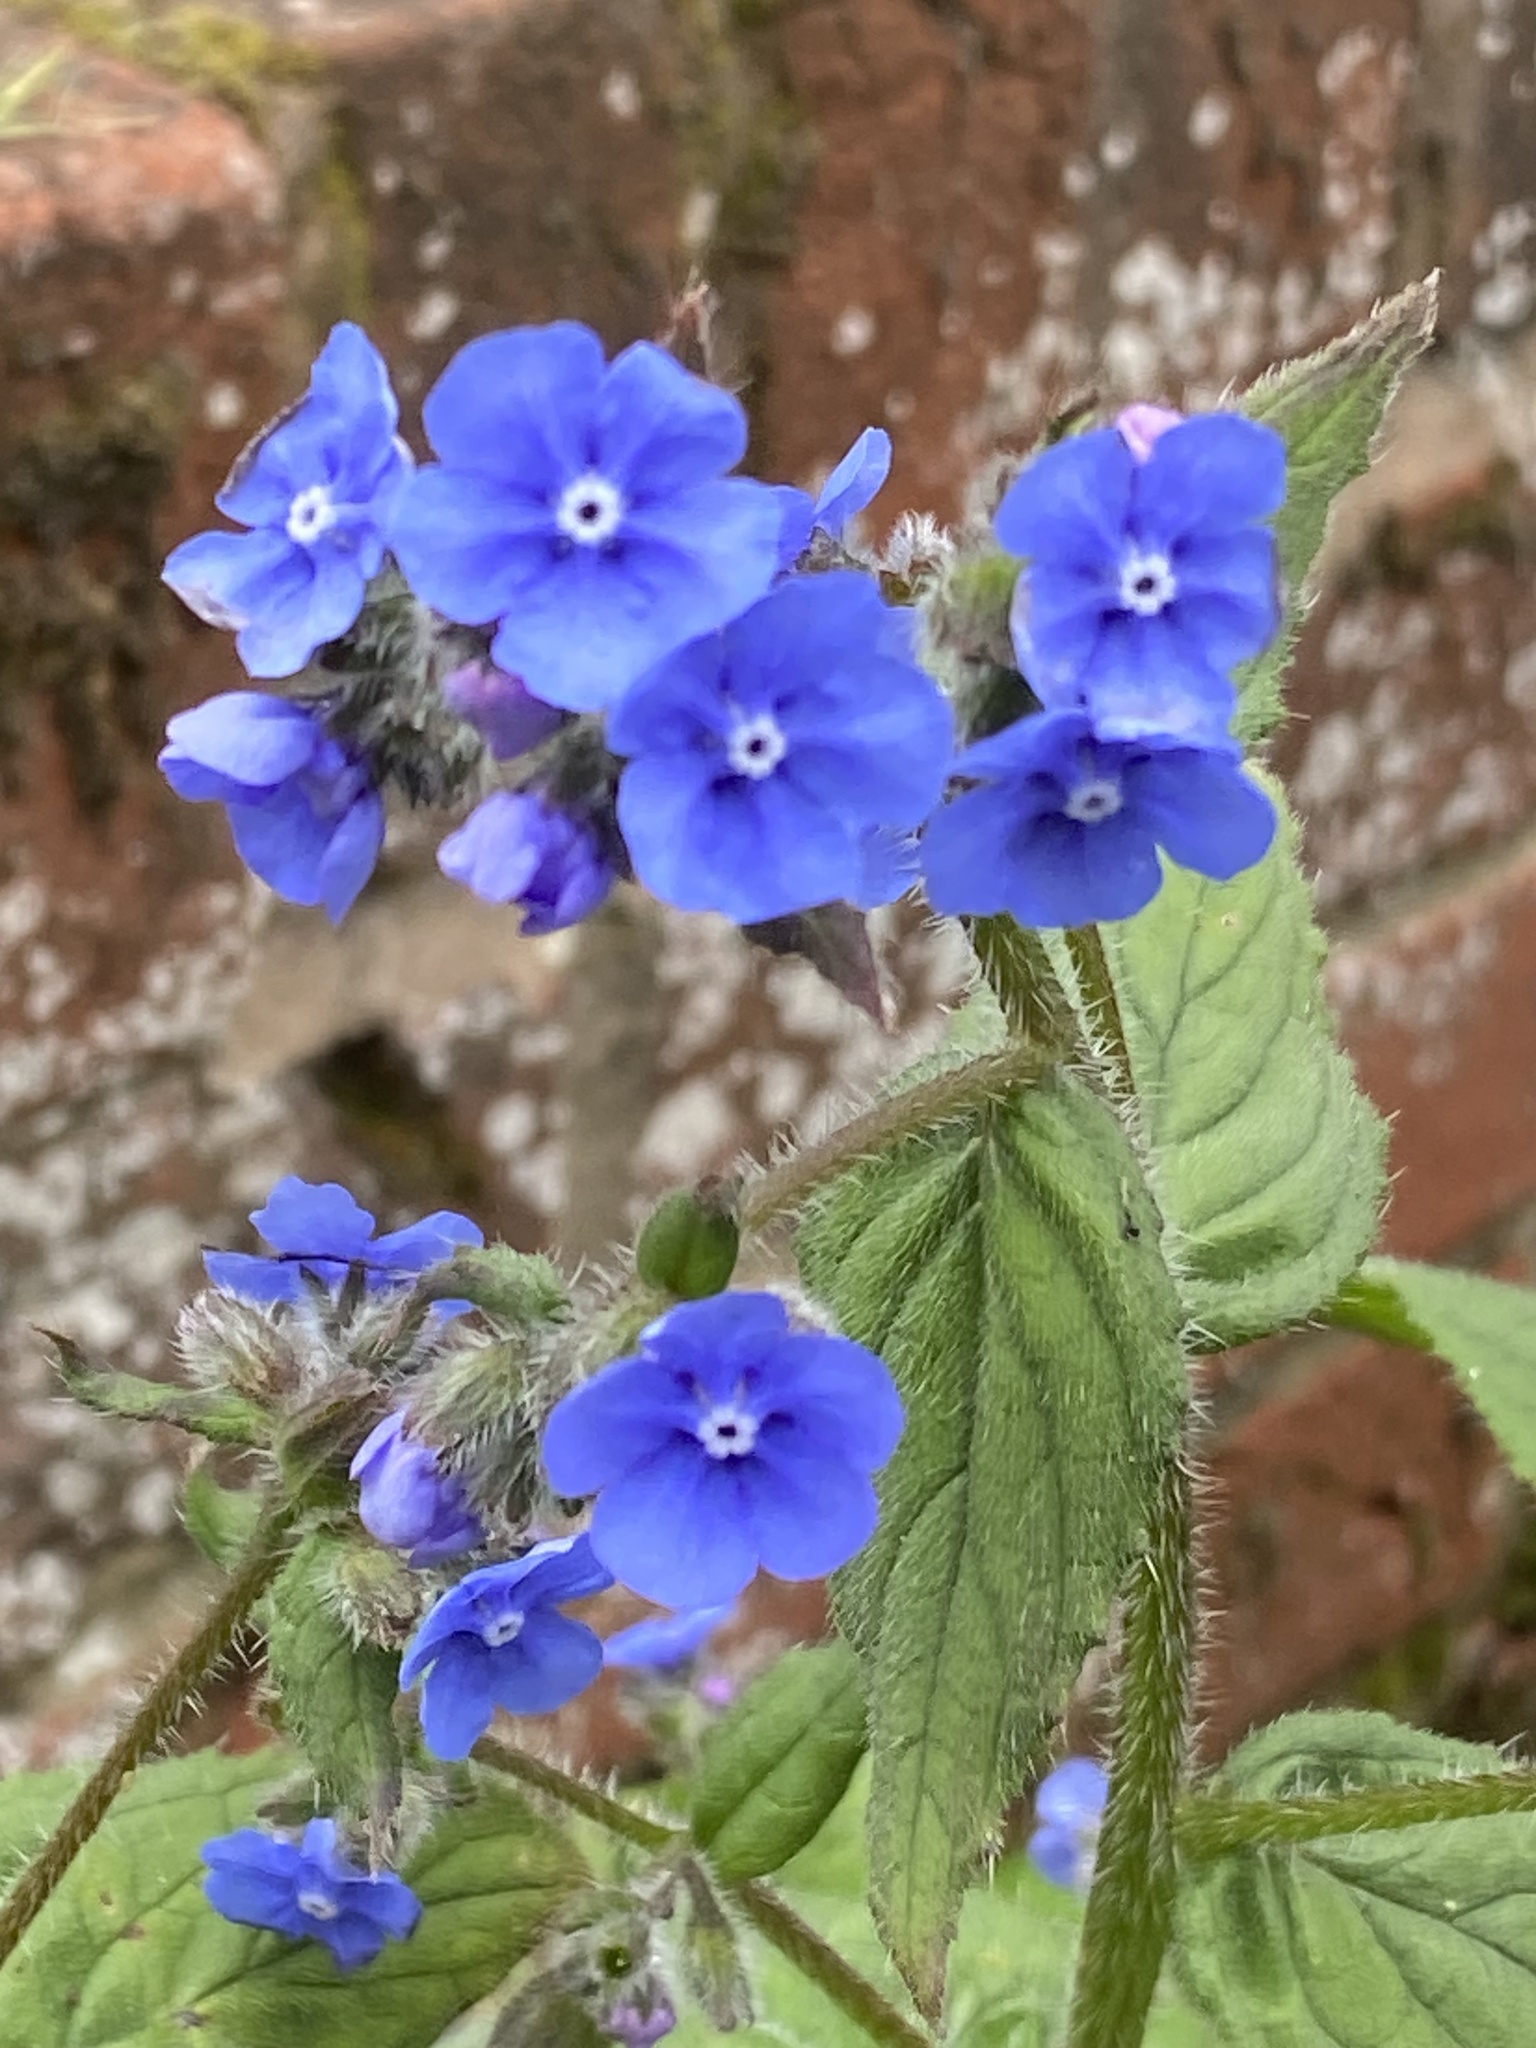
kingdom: Plantae
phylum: Tracheophyta
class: Magnoliopsida
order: Boraginales
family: Boraginaceae
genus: Pentaglottis
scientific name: Pentaglottis sempervirens
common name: Green alkanet
